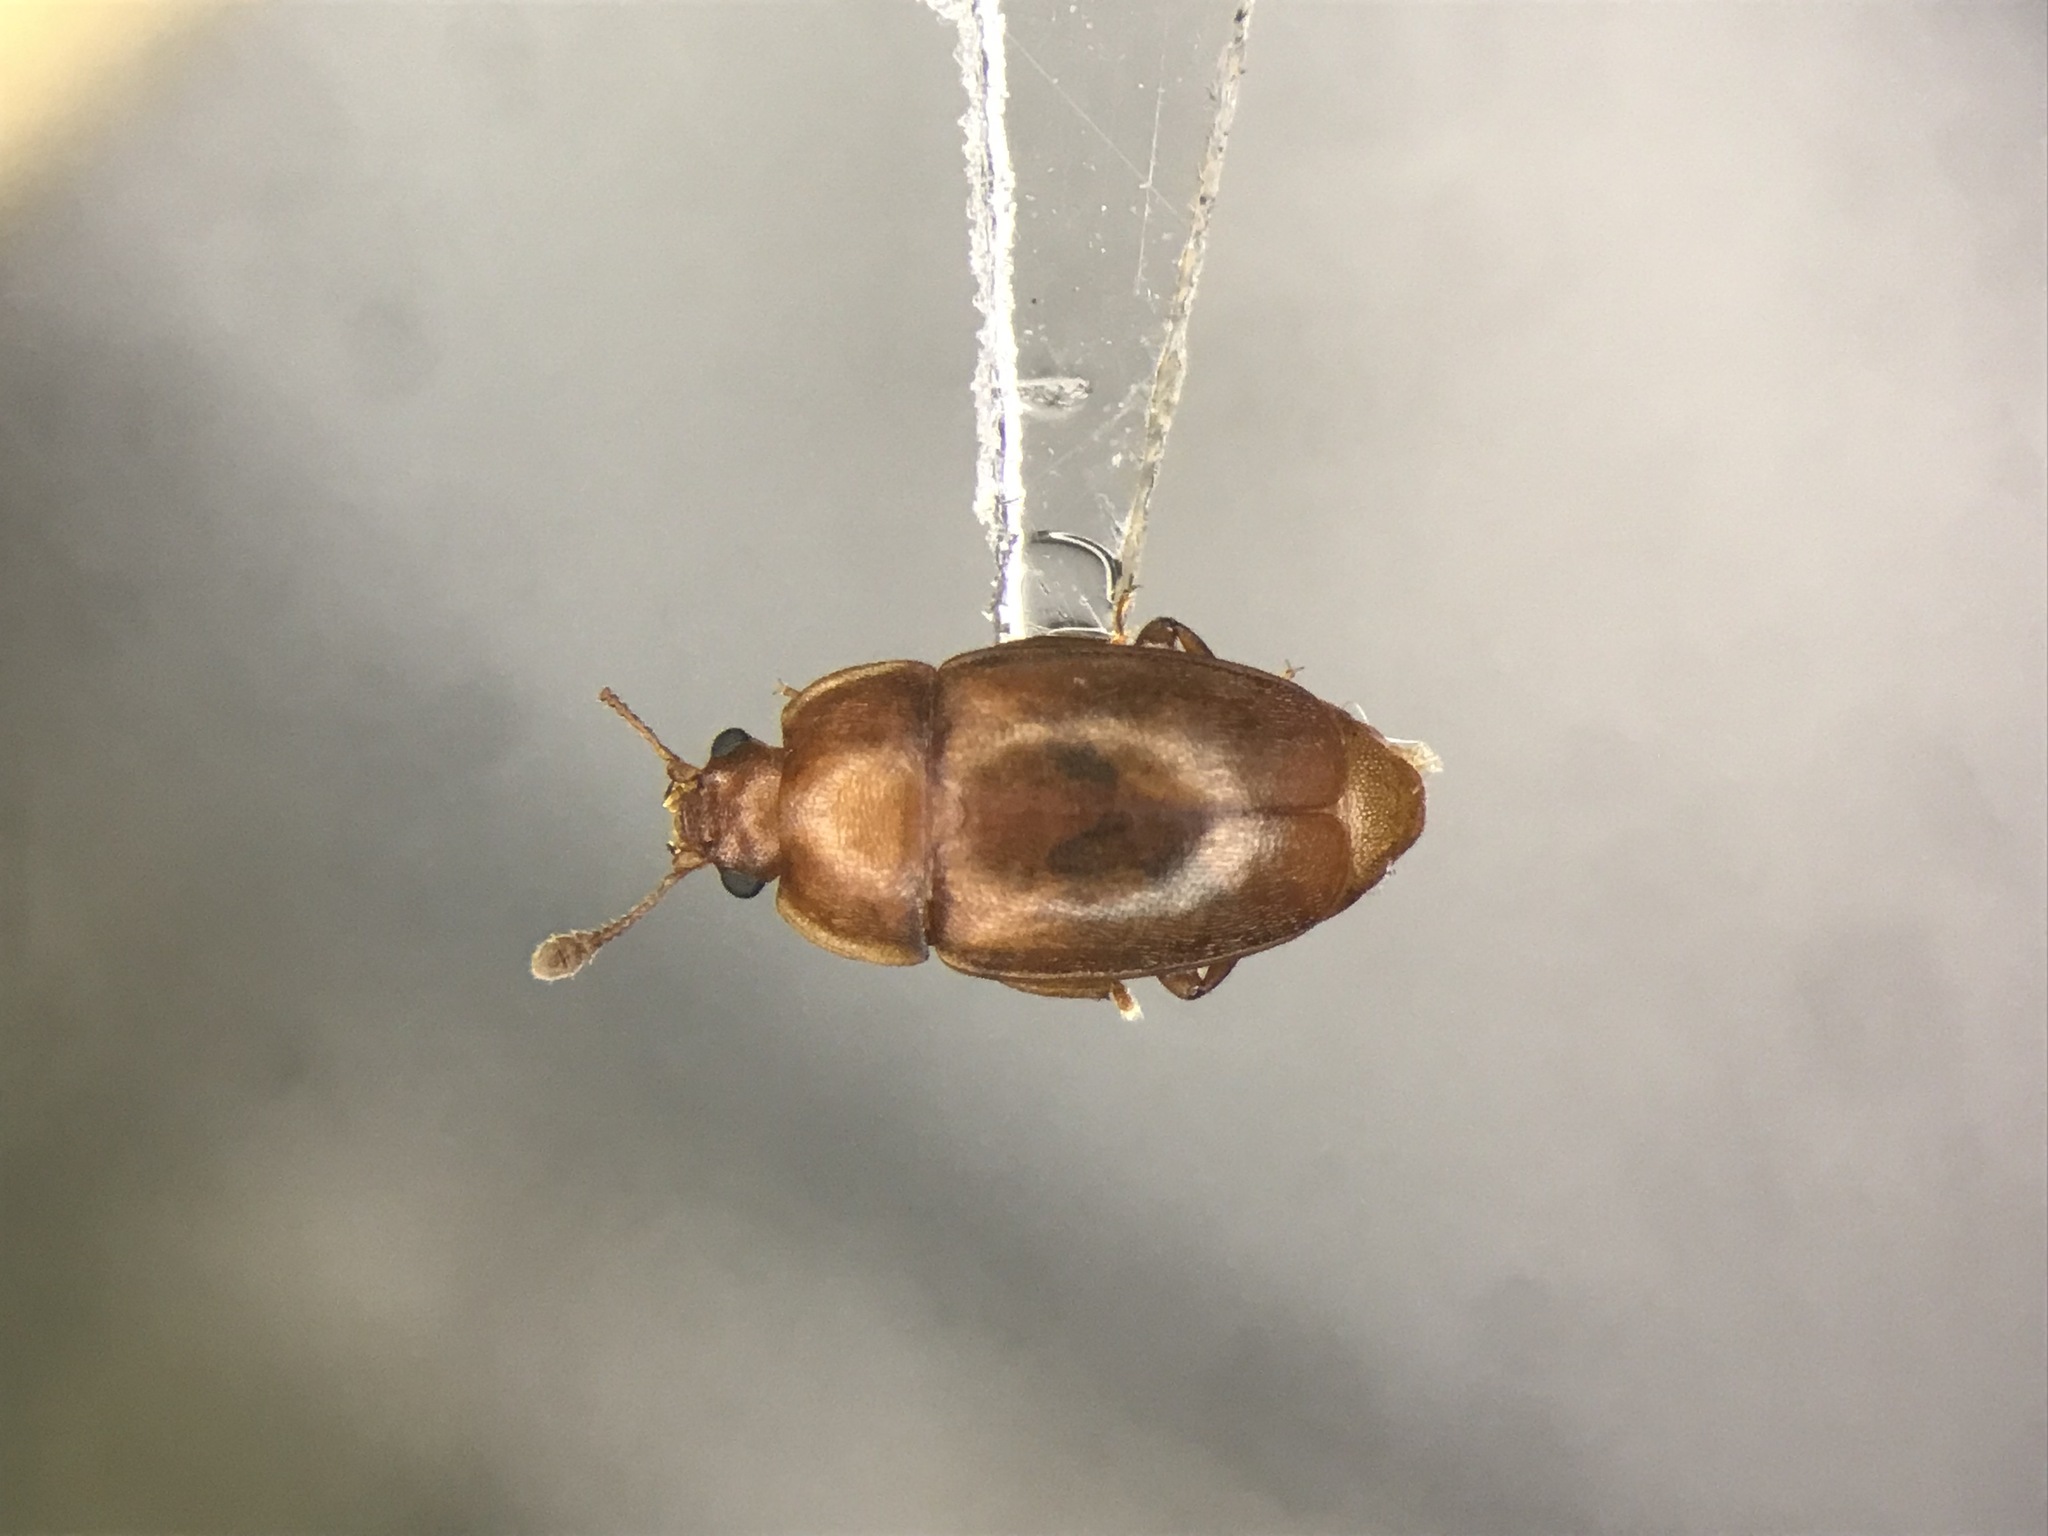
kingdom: Animalia
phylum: Arthropoda
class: Insecta
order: Coleoptera
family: Nitidulidae
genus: Epuraea
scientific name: Epuraea aestiva
